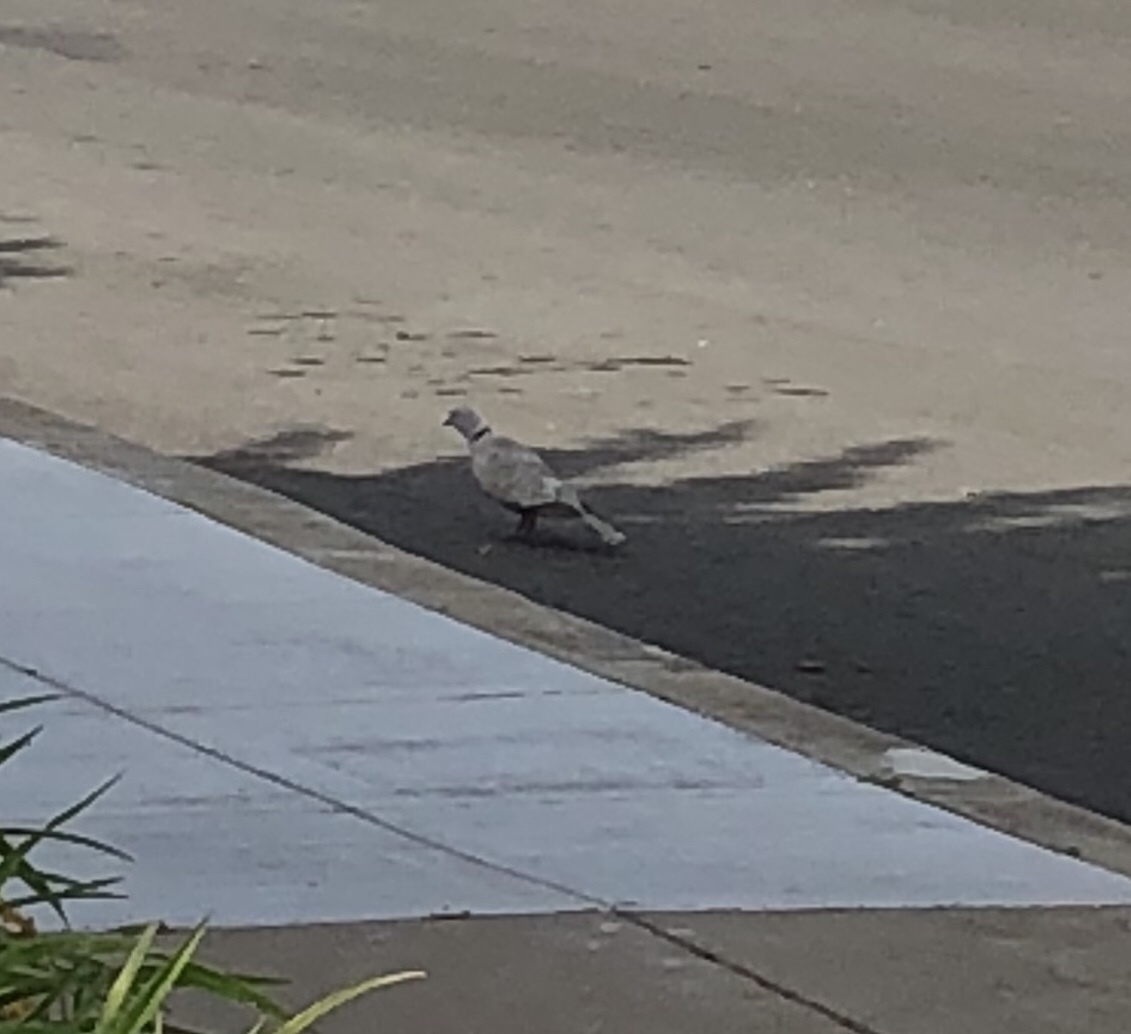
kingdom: Animalia
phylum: Chordata
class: Aves
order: Columbiformes
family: Columbidae
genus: Streptopelia
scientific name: Streptopelia decaocto
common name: Eurasian collared dove
